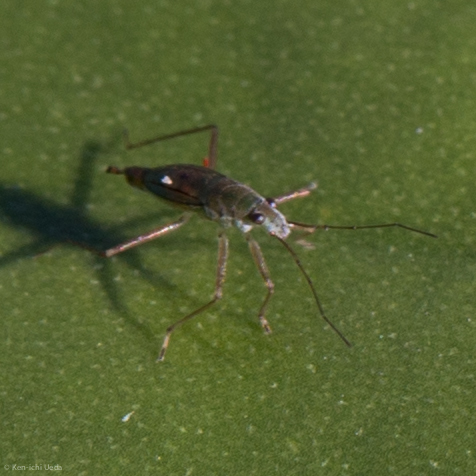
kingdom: Animalia
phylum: Arthropoda
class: Insecta
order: Hemiptera
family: Mesoveliidae
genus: Mesovelia
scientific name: Mesovelia
